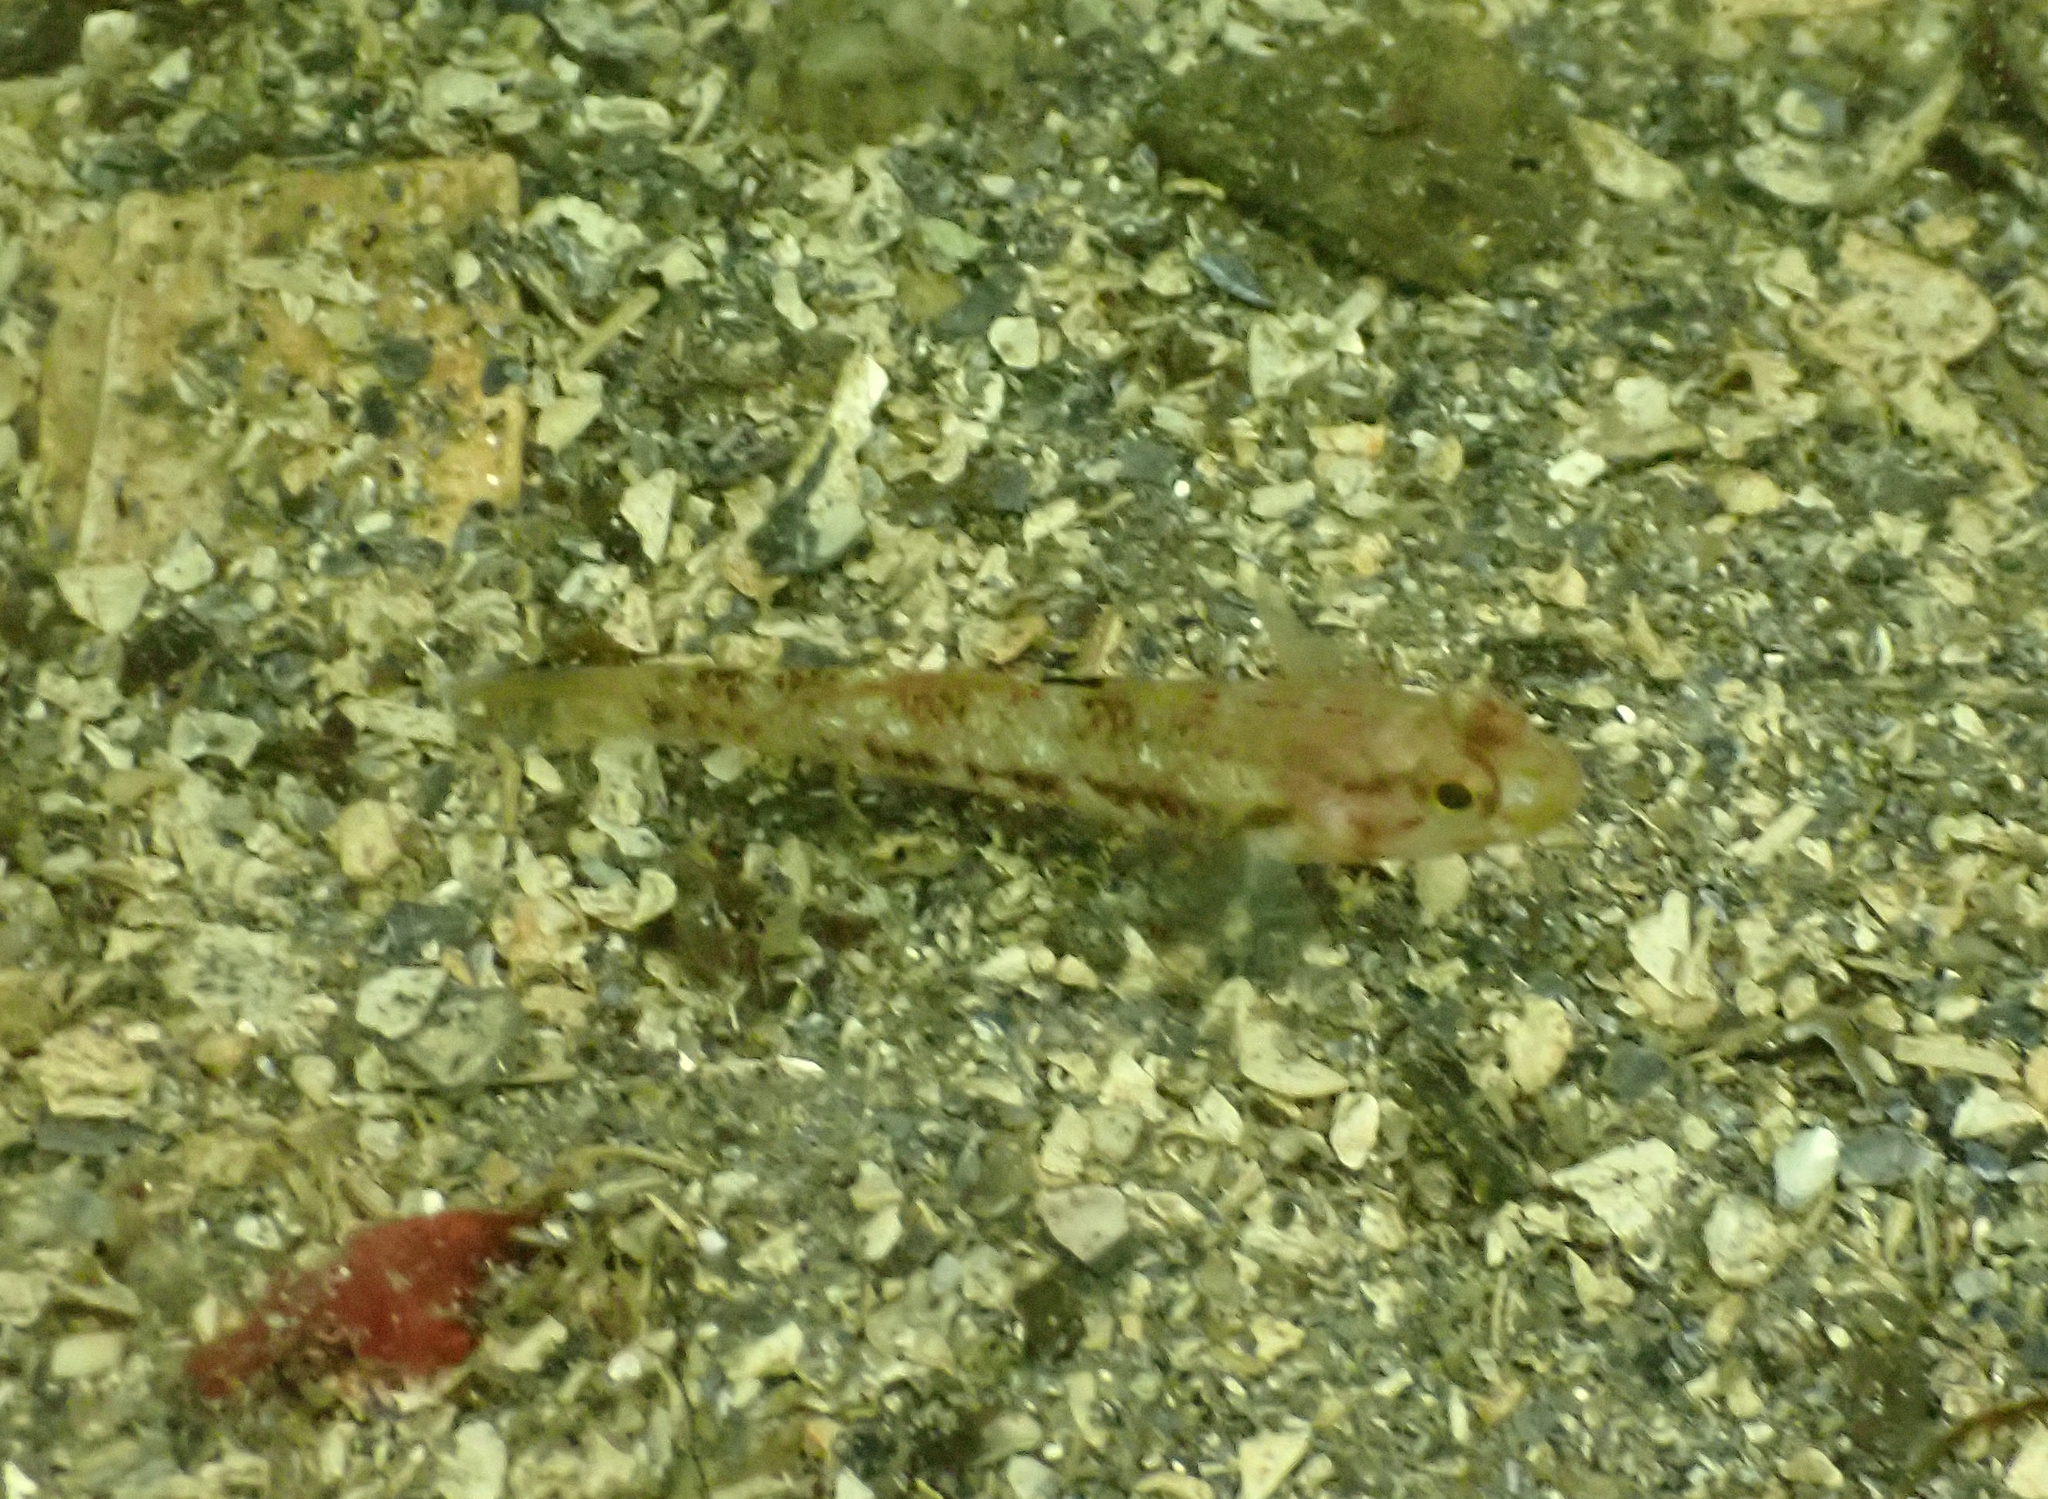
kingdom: Animalia
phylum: Chordata
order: Perciformes
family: Gobiidae
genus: Rhinogobiops
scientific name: Rhinogobiops nicholsii
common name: Blackeye goby
